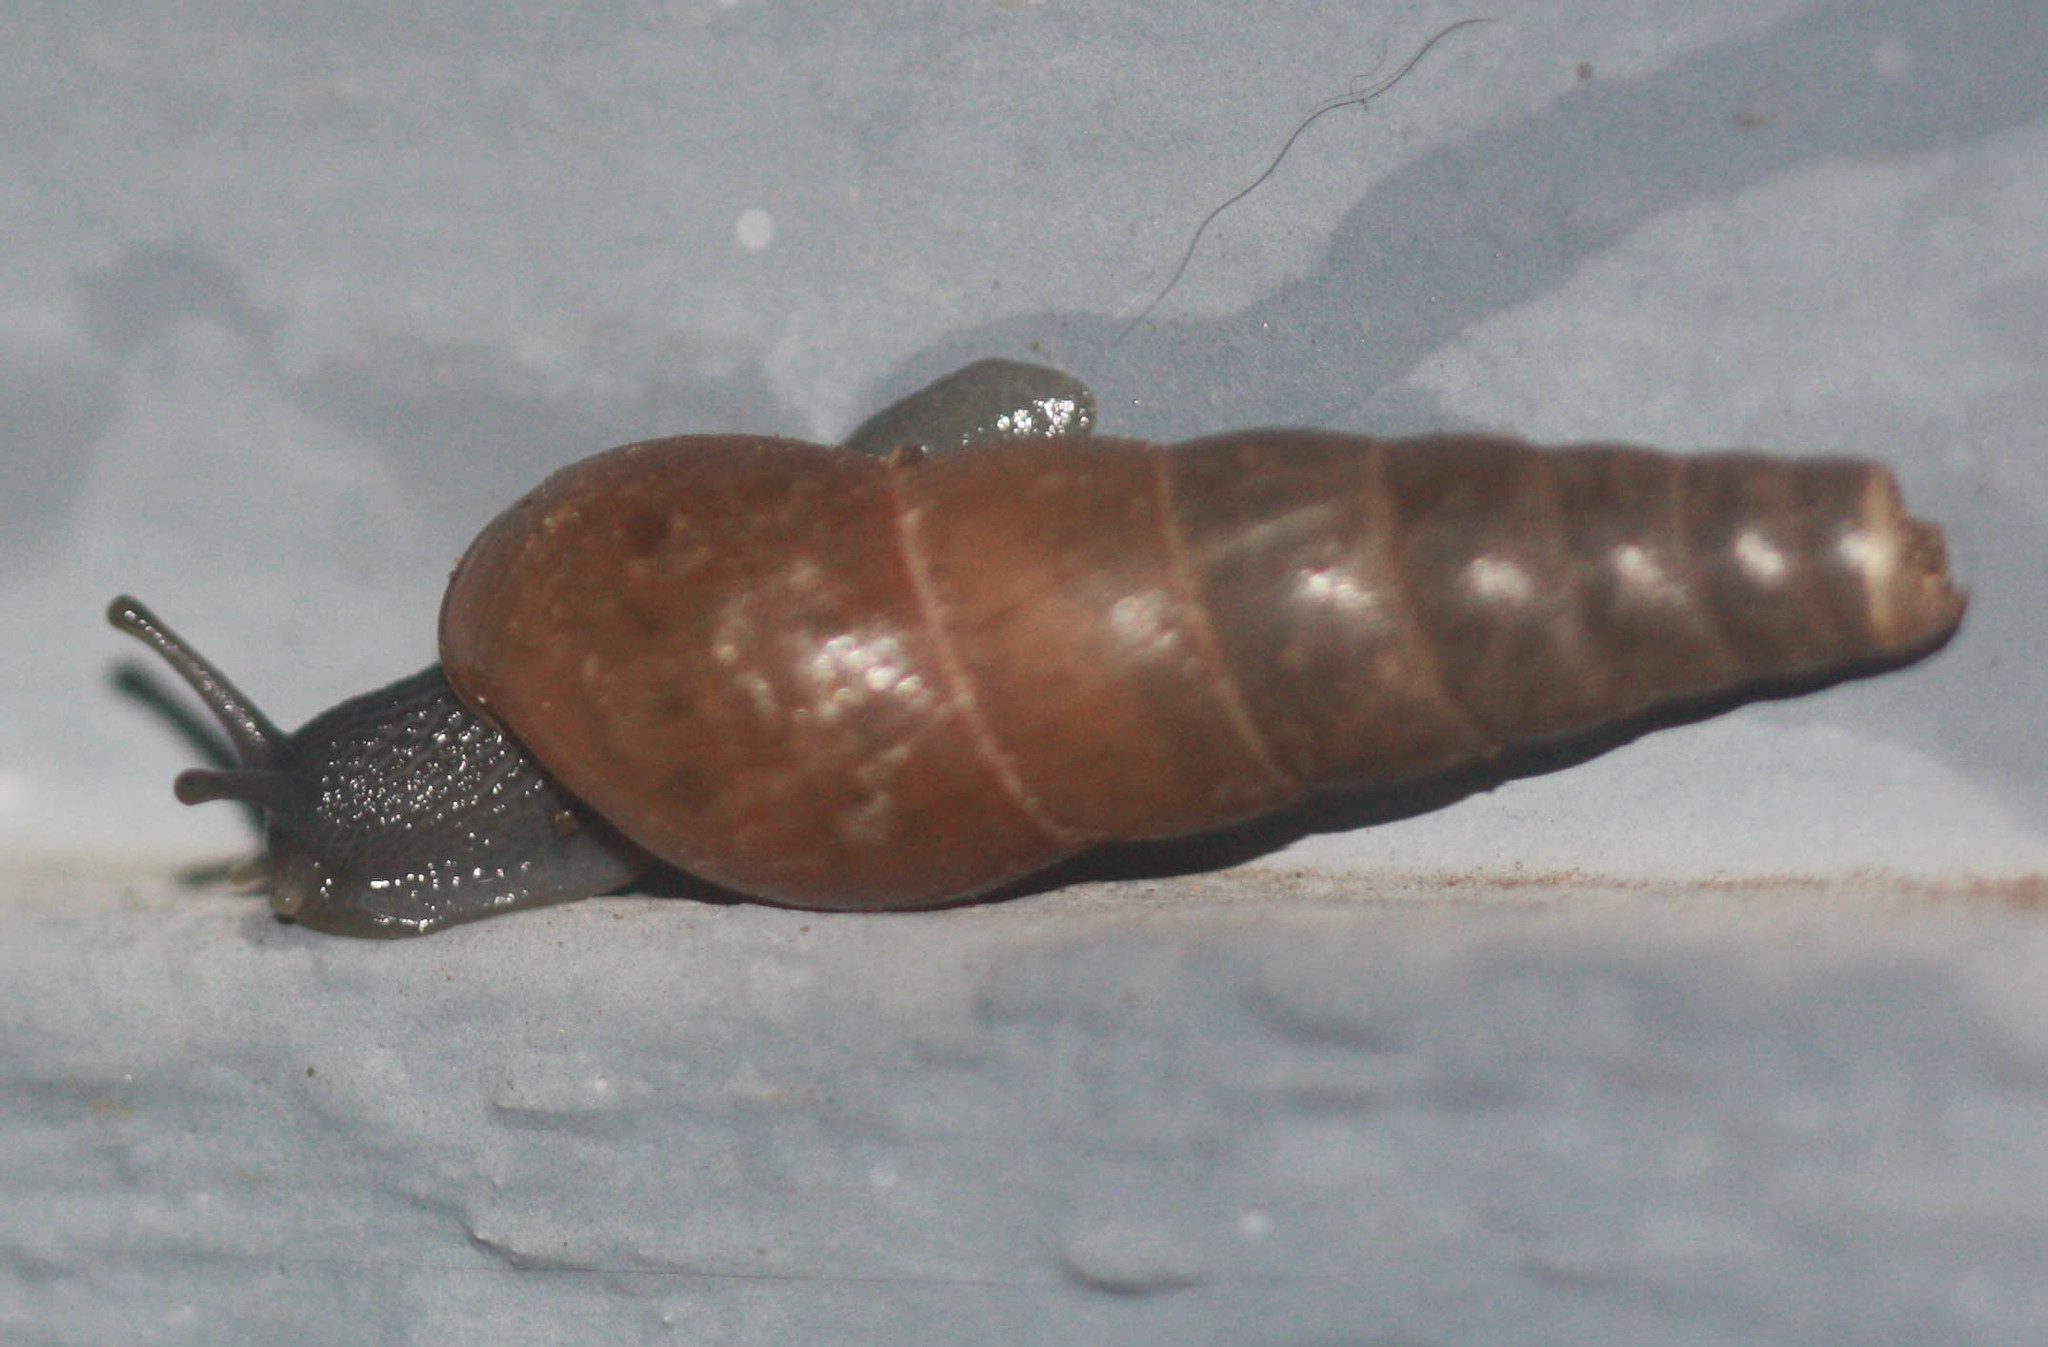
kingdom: Animalia
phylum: Mollusca
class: Gastropoda
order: Stylommatophora
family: Achatinidae
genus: Rumina
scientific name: Rumina decollata
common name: Decollate snail
